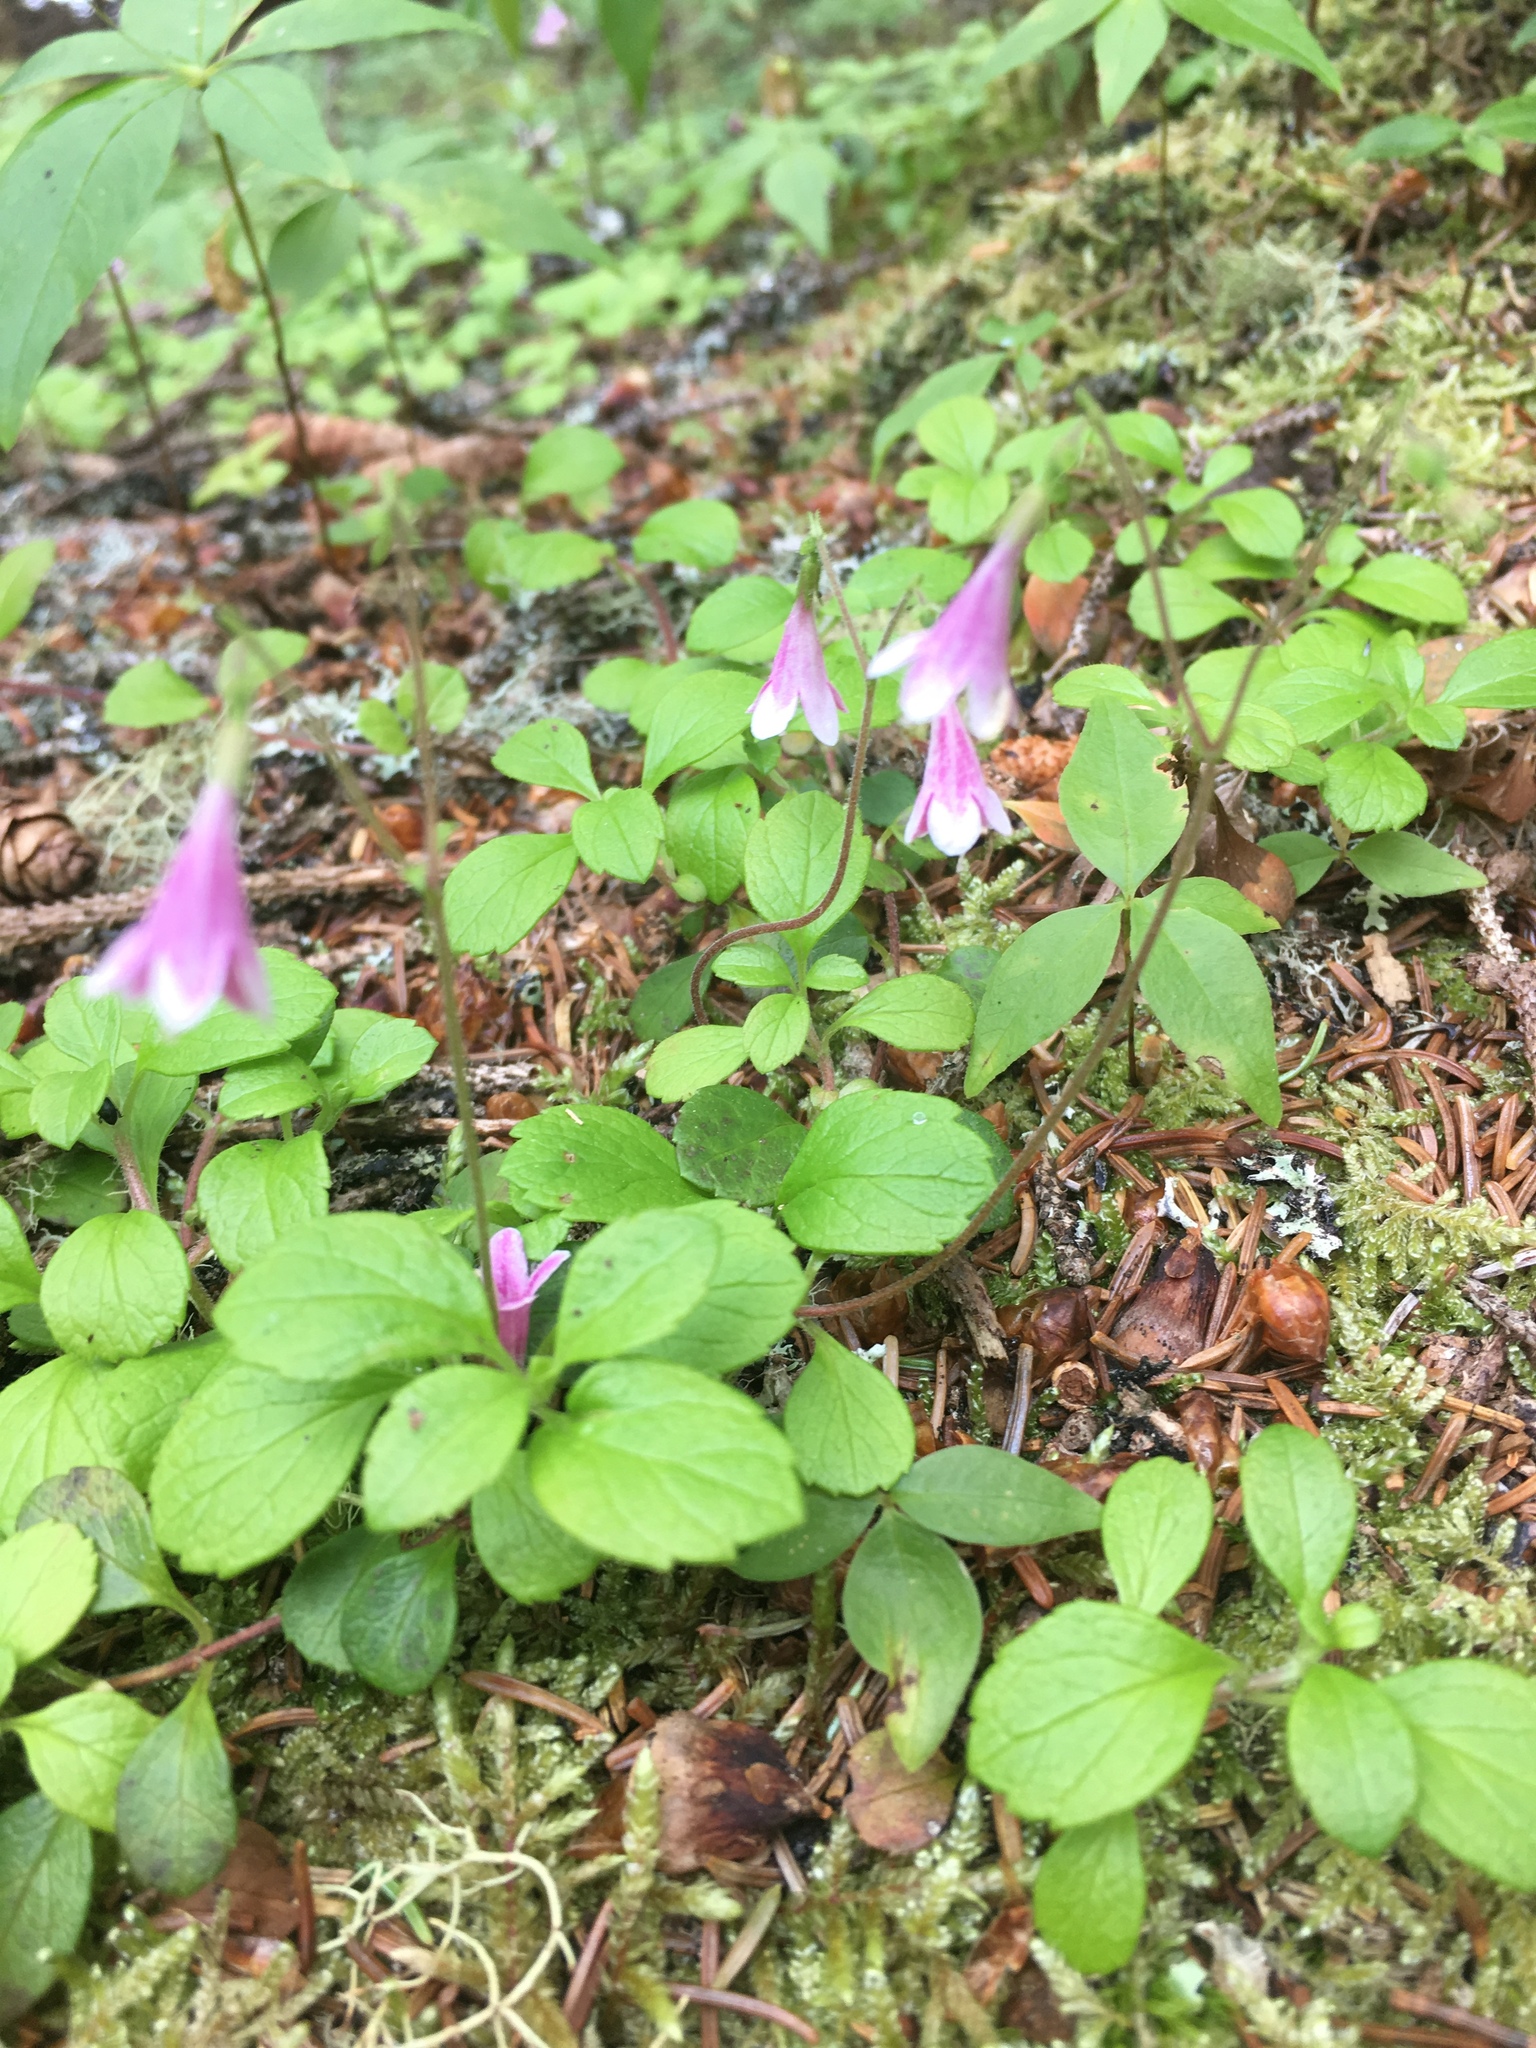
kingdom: Plantae
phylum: Tracheophyta
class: Magnoliopsida
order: Dipsacales
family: Caprifoliaceae
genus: Linnaea
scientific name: Linnaea borealis
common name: Twinflower
